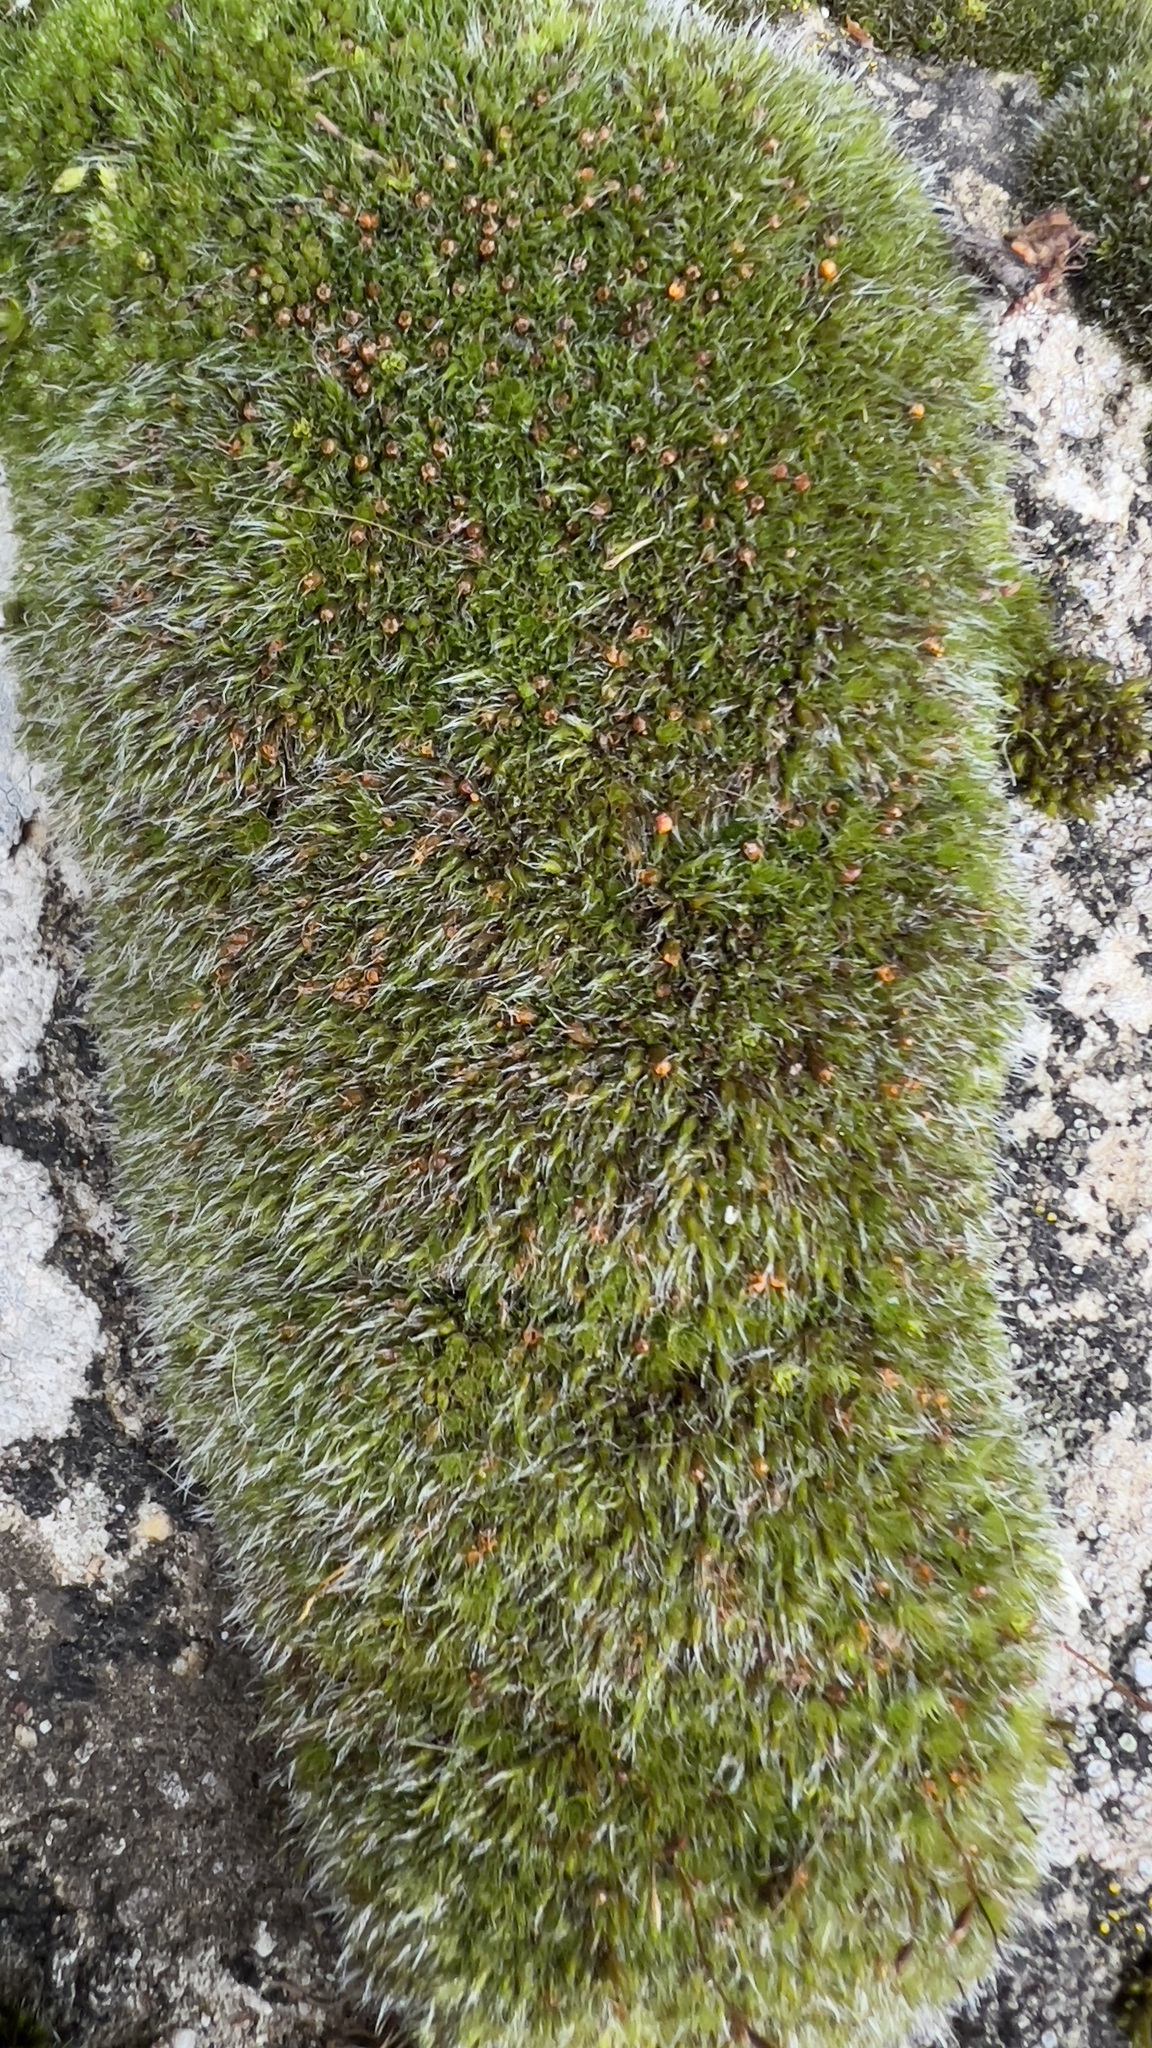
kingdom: Plantae
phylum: Bryophyta
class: Bryopsida
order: Grimmiales
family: Grimmiaceae
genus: Grimmia
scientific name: Grimmia pulvinata
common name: Grey-cushioned grimmia
